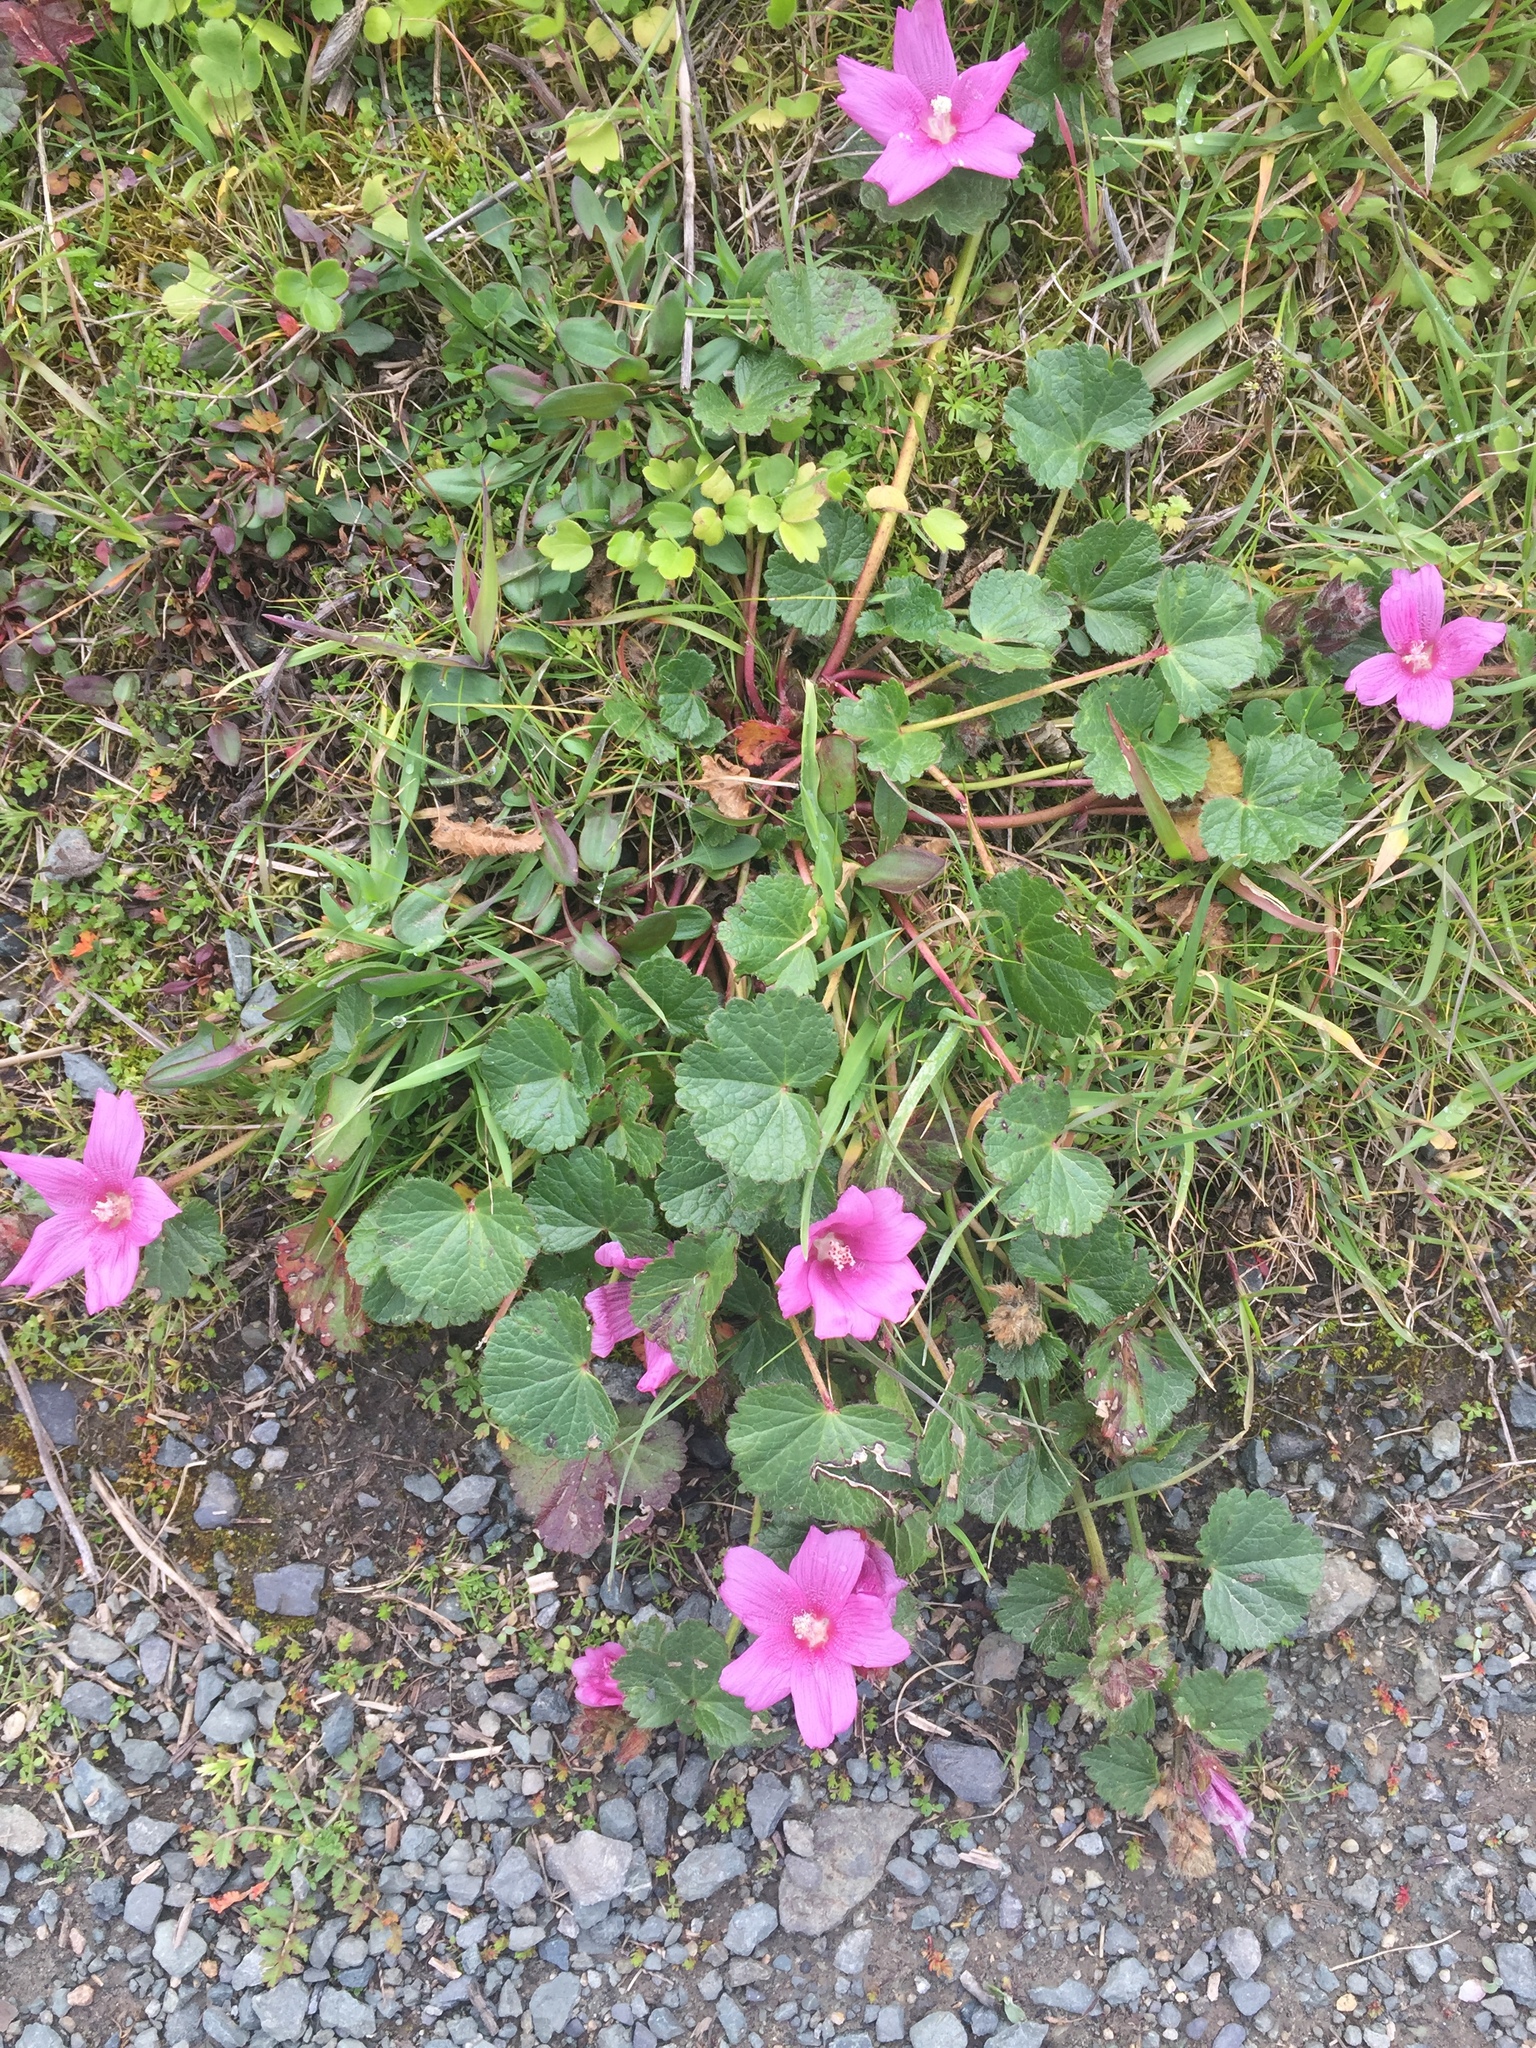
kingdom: Plantae
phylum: Tracheophyta
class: Magnoliopsida
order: Malvales
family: Malvaceae
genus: Sidalcea
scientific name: Sidalcea malviflora
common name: Greek mallow
